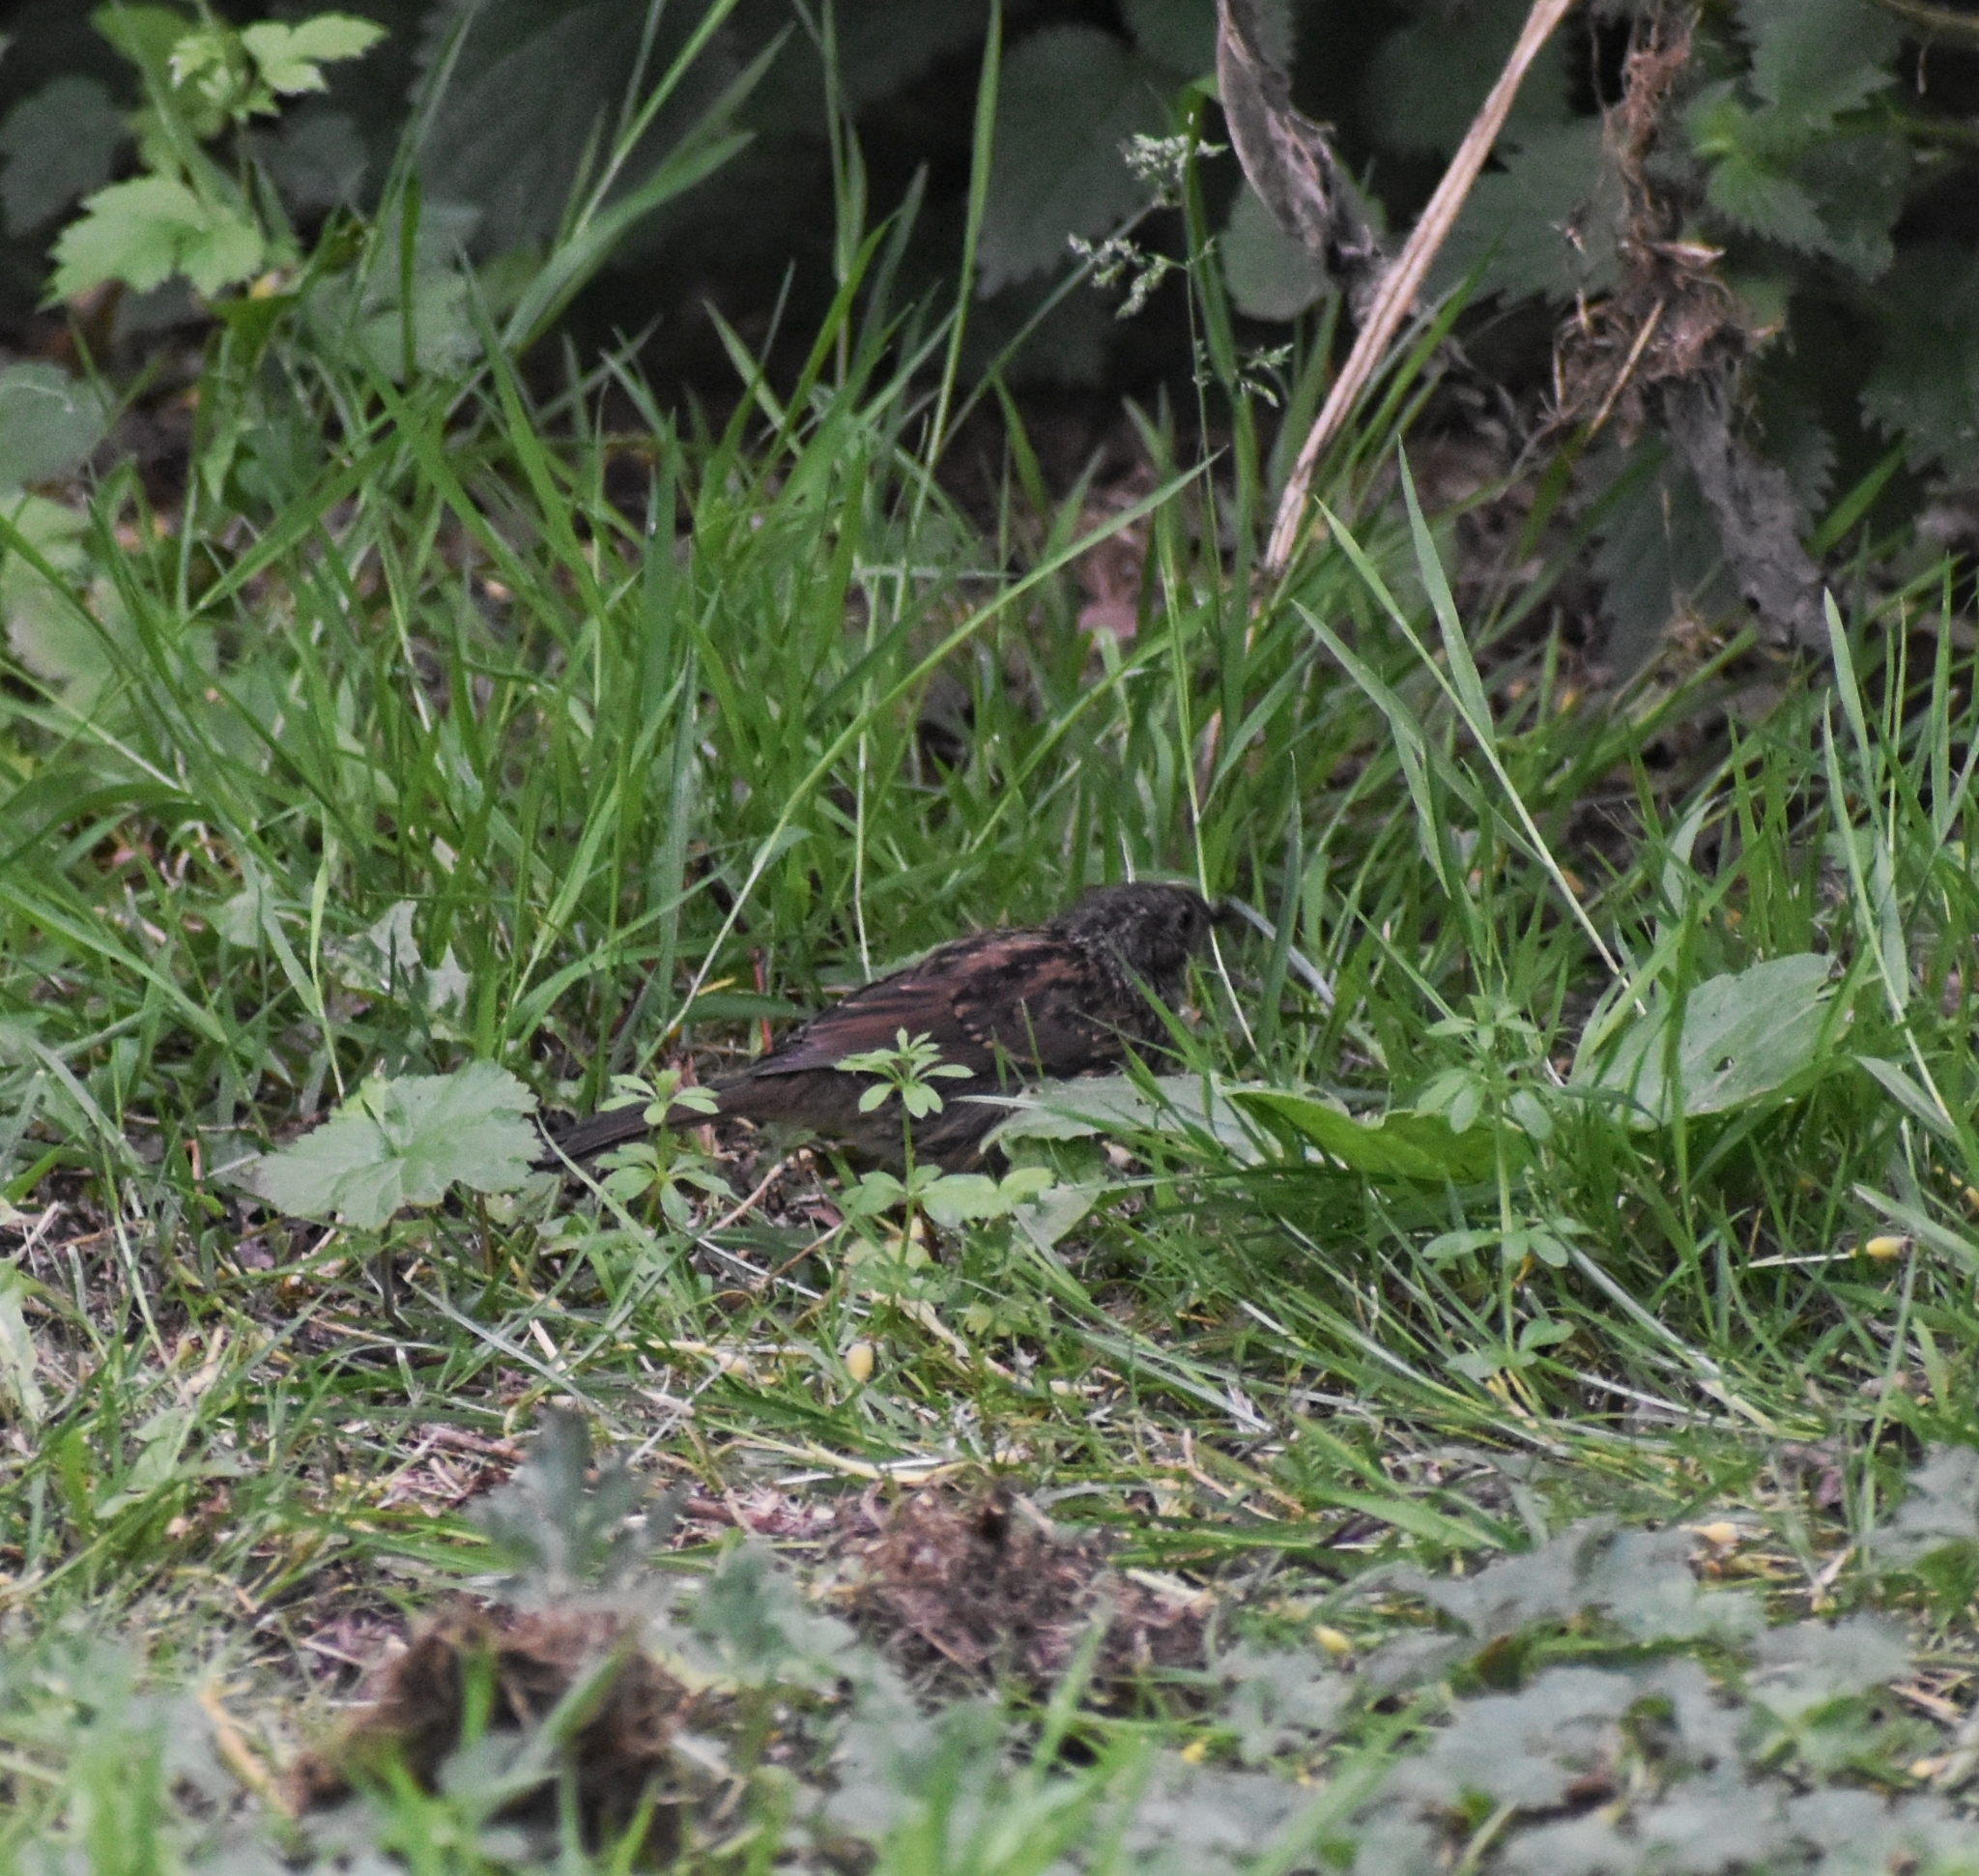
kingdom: Animalia
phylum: Chordata
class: Aves
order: Passeriformes
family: Prunellidae
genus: Prunella
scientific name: Prunella modularis
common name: Dunnock
